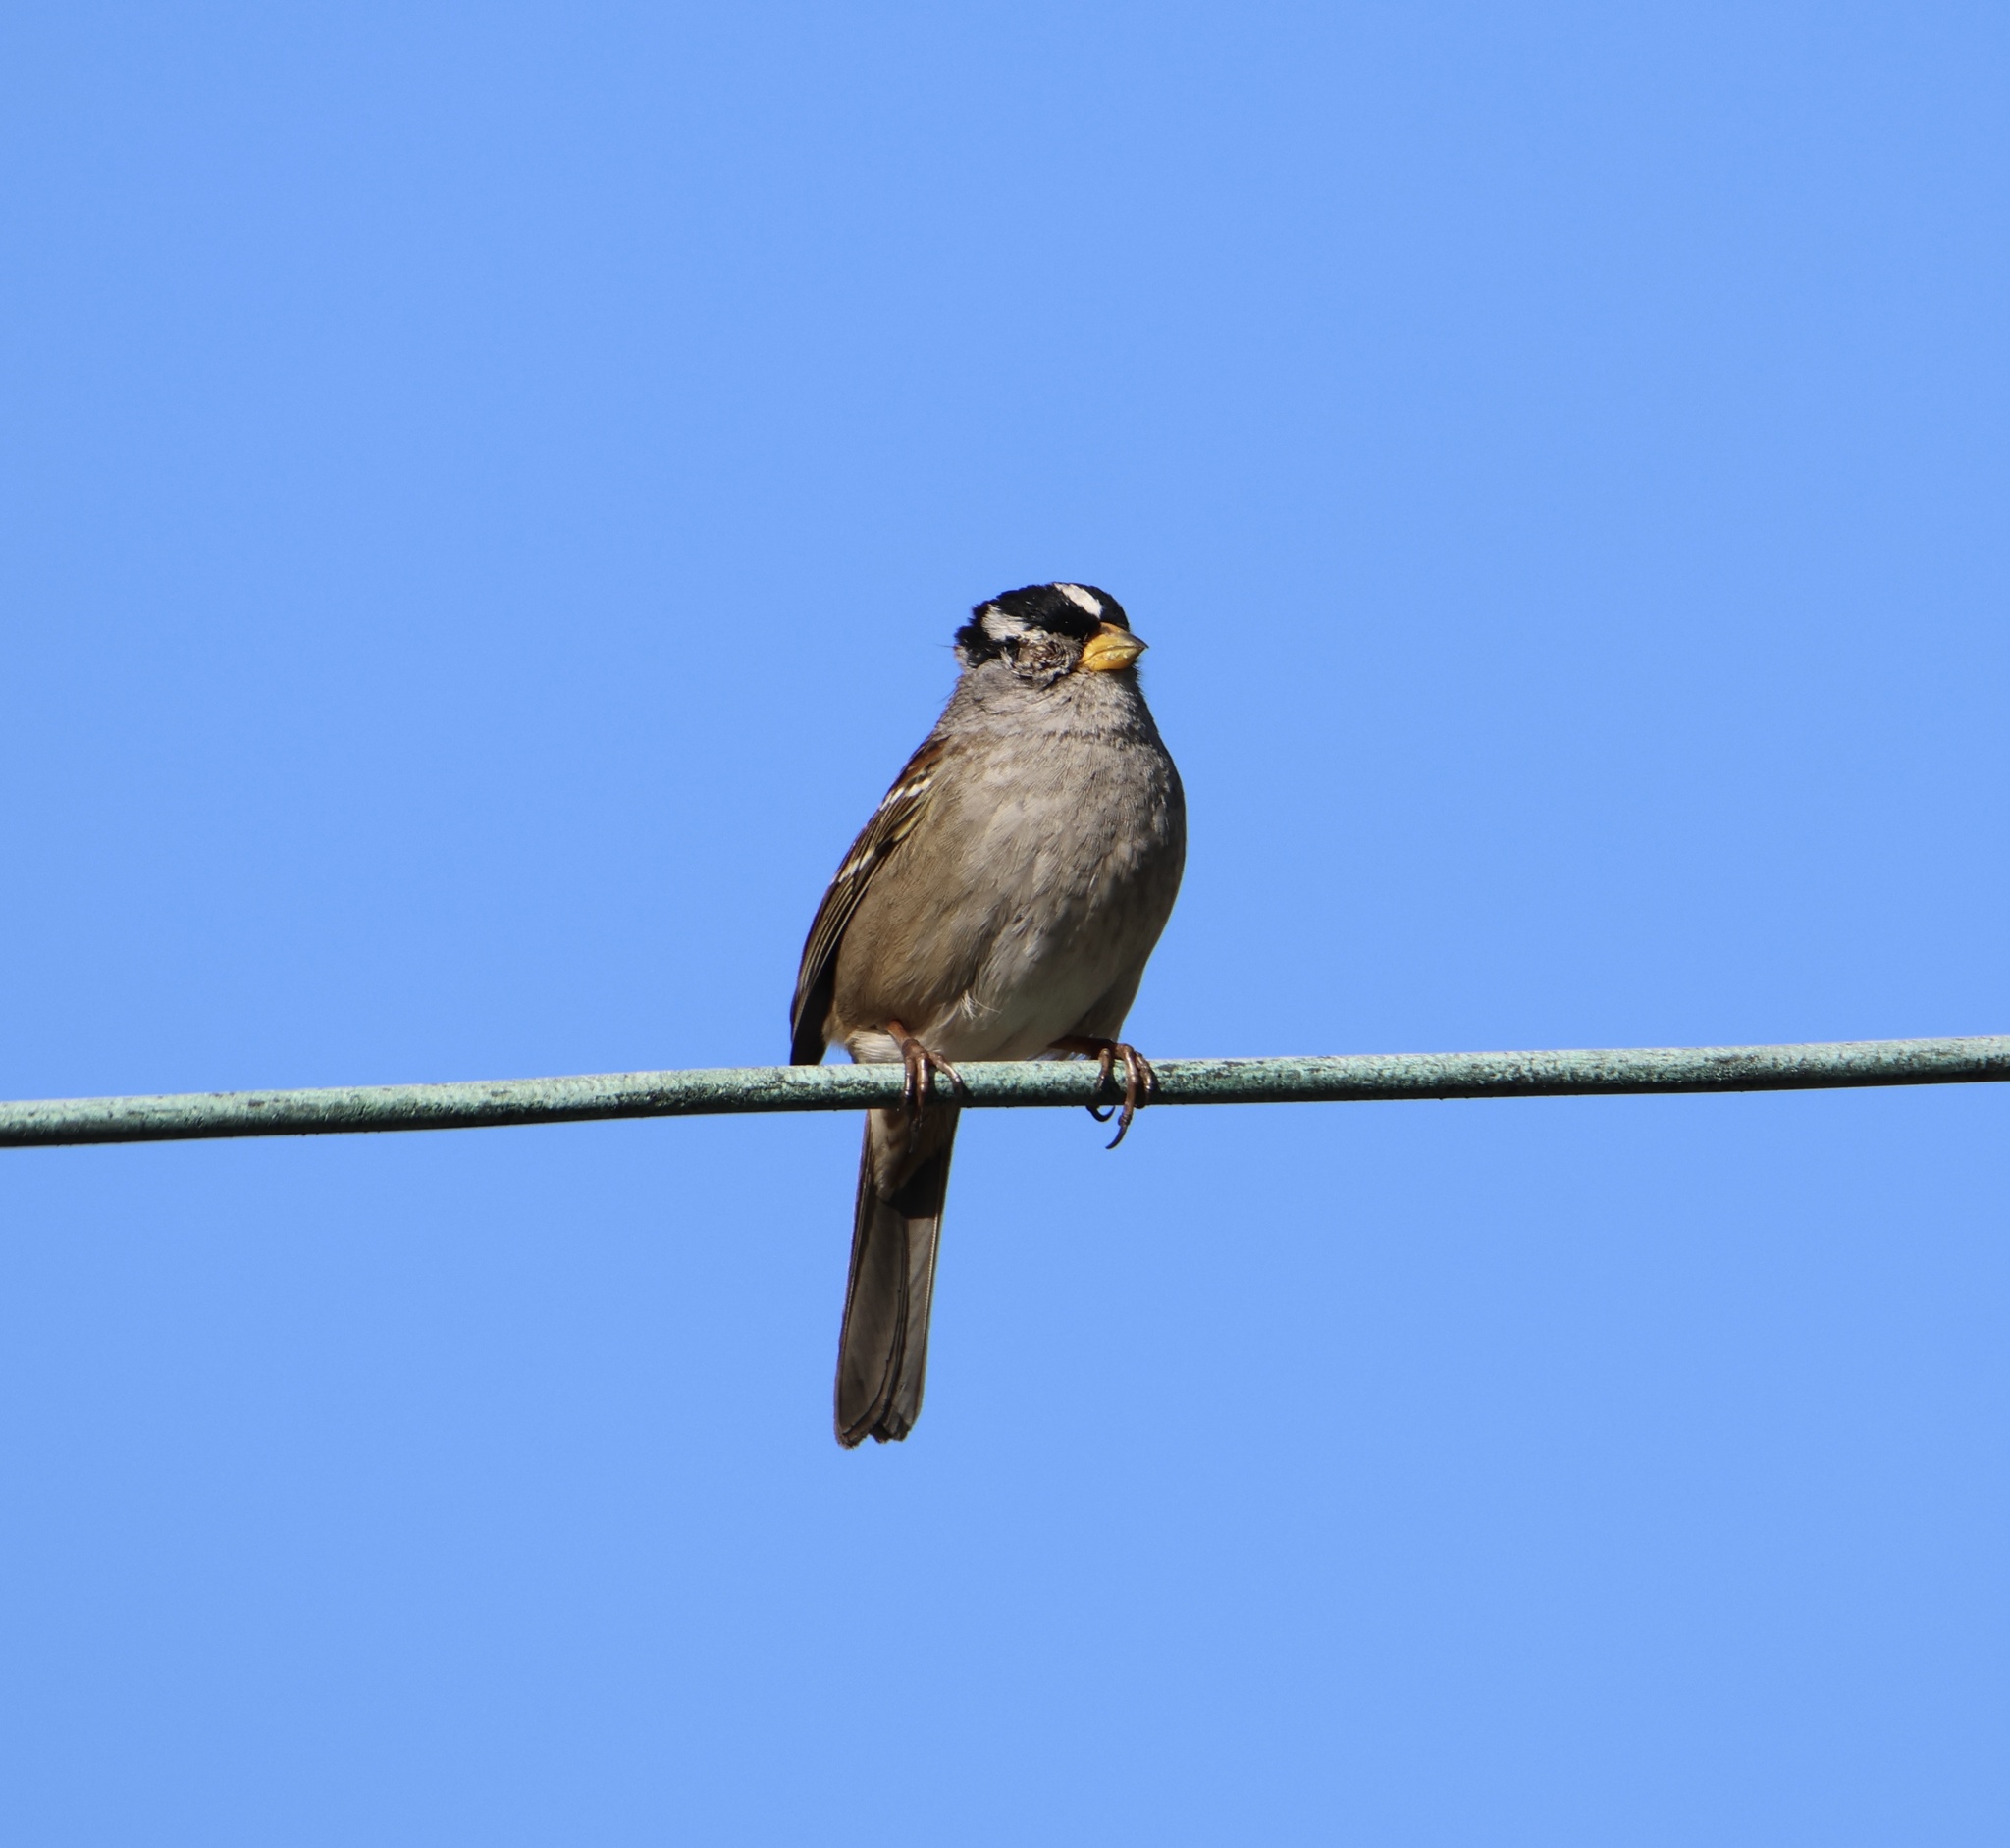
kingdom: Animalia
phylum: Chordata
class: Aves
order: Passeriformes
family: Passerellidae
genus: Zonotrichia
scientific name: Zonotrichia leucophrys
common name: White-crowned sparrow
